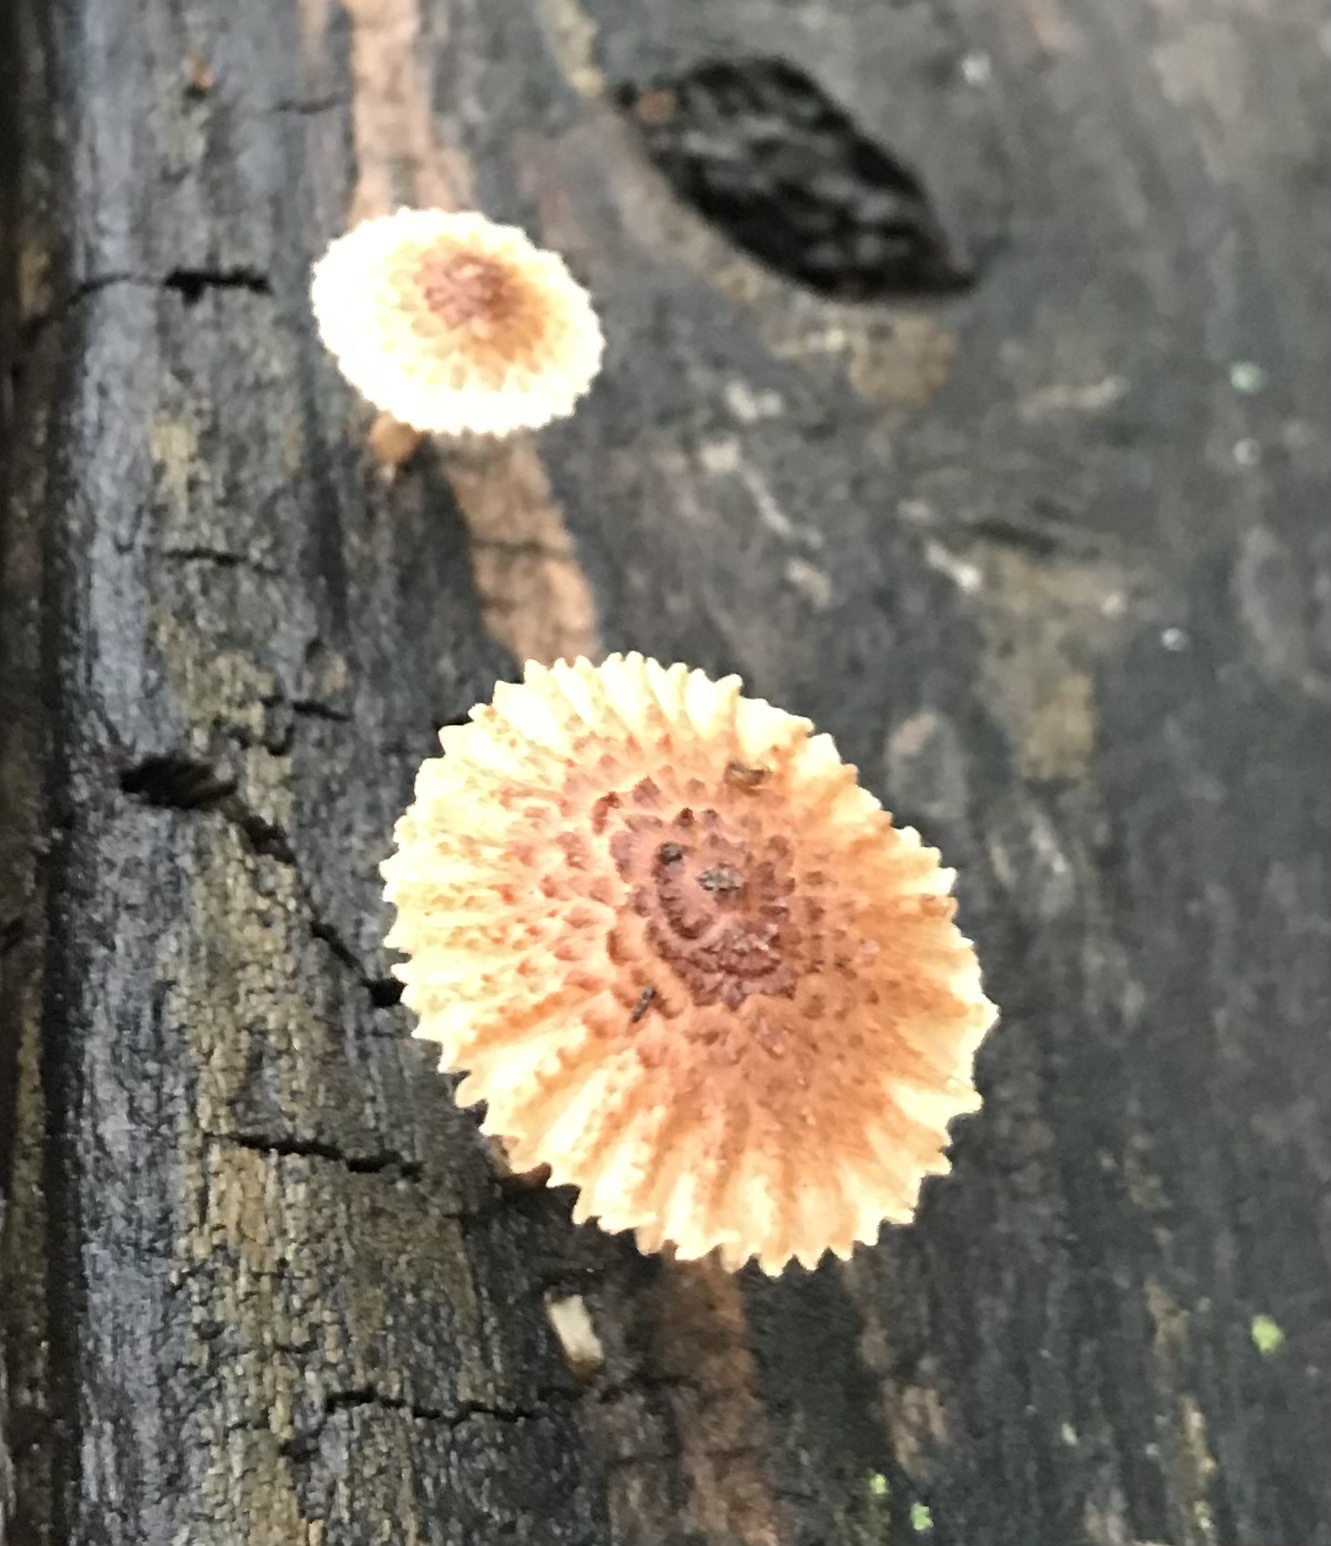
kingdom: Fungi
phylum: Basidiomycota
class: Agaricomycetes
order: Gloeophyllales
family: Gloeophyllaceae
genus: Heliocybe
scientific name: Heliocybe sulcata
